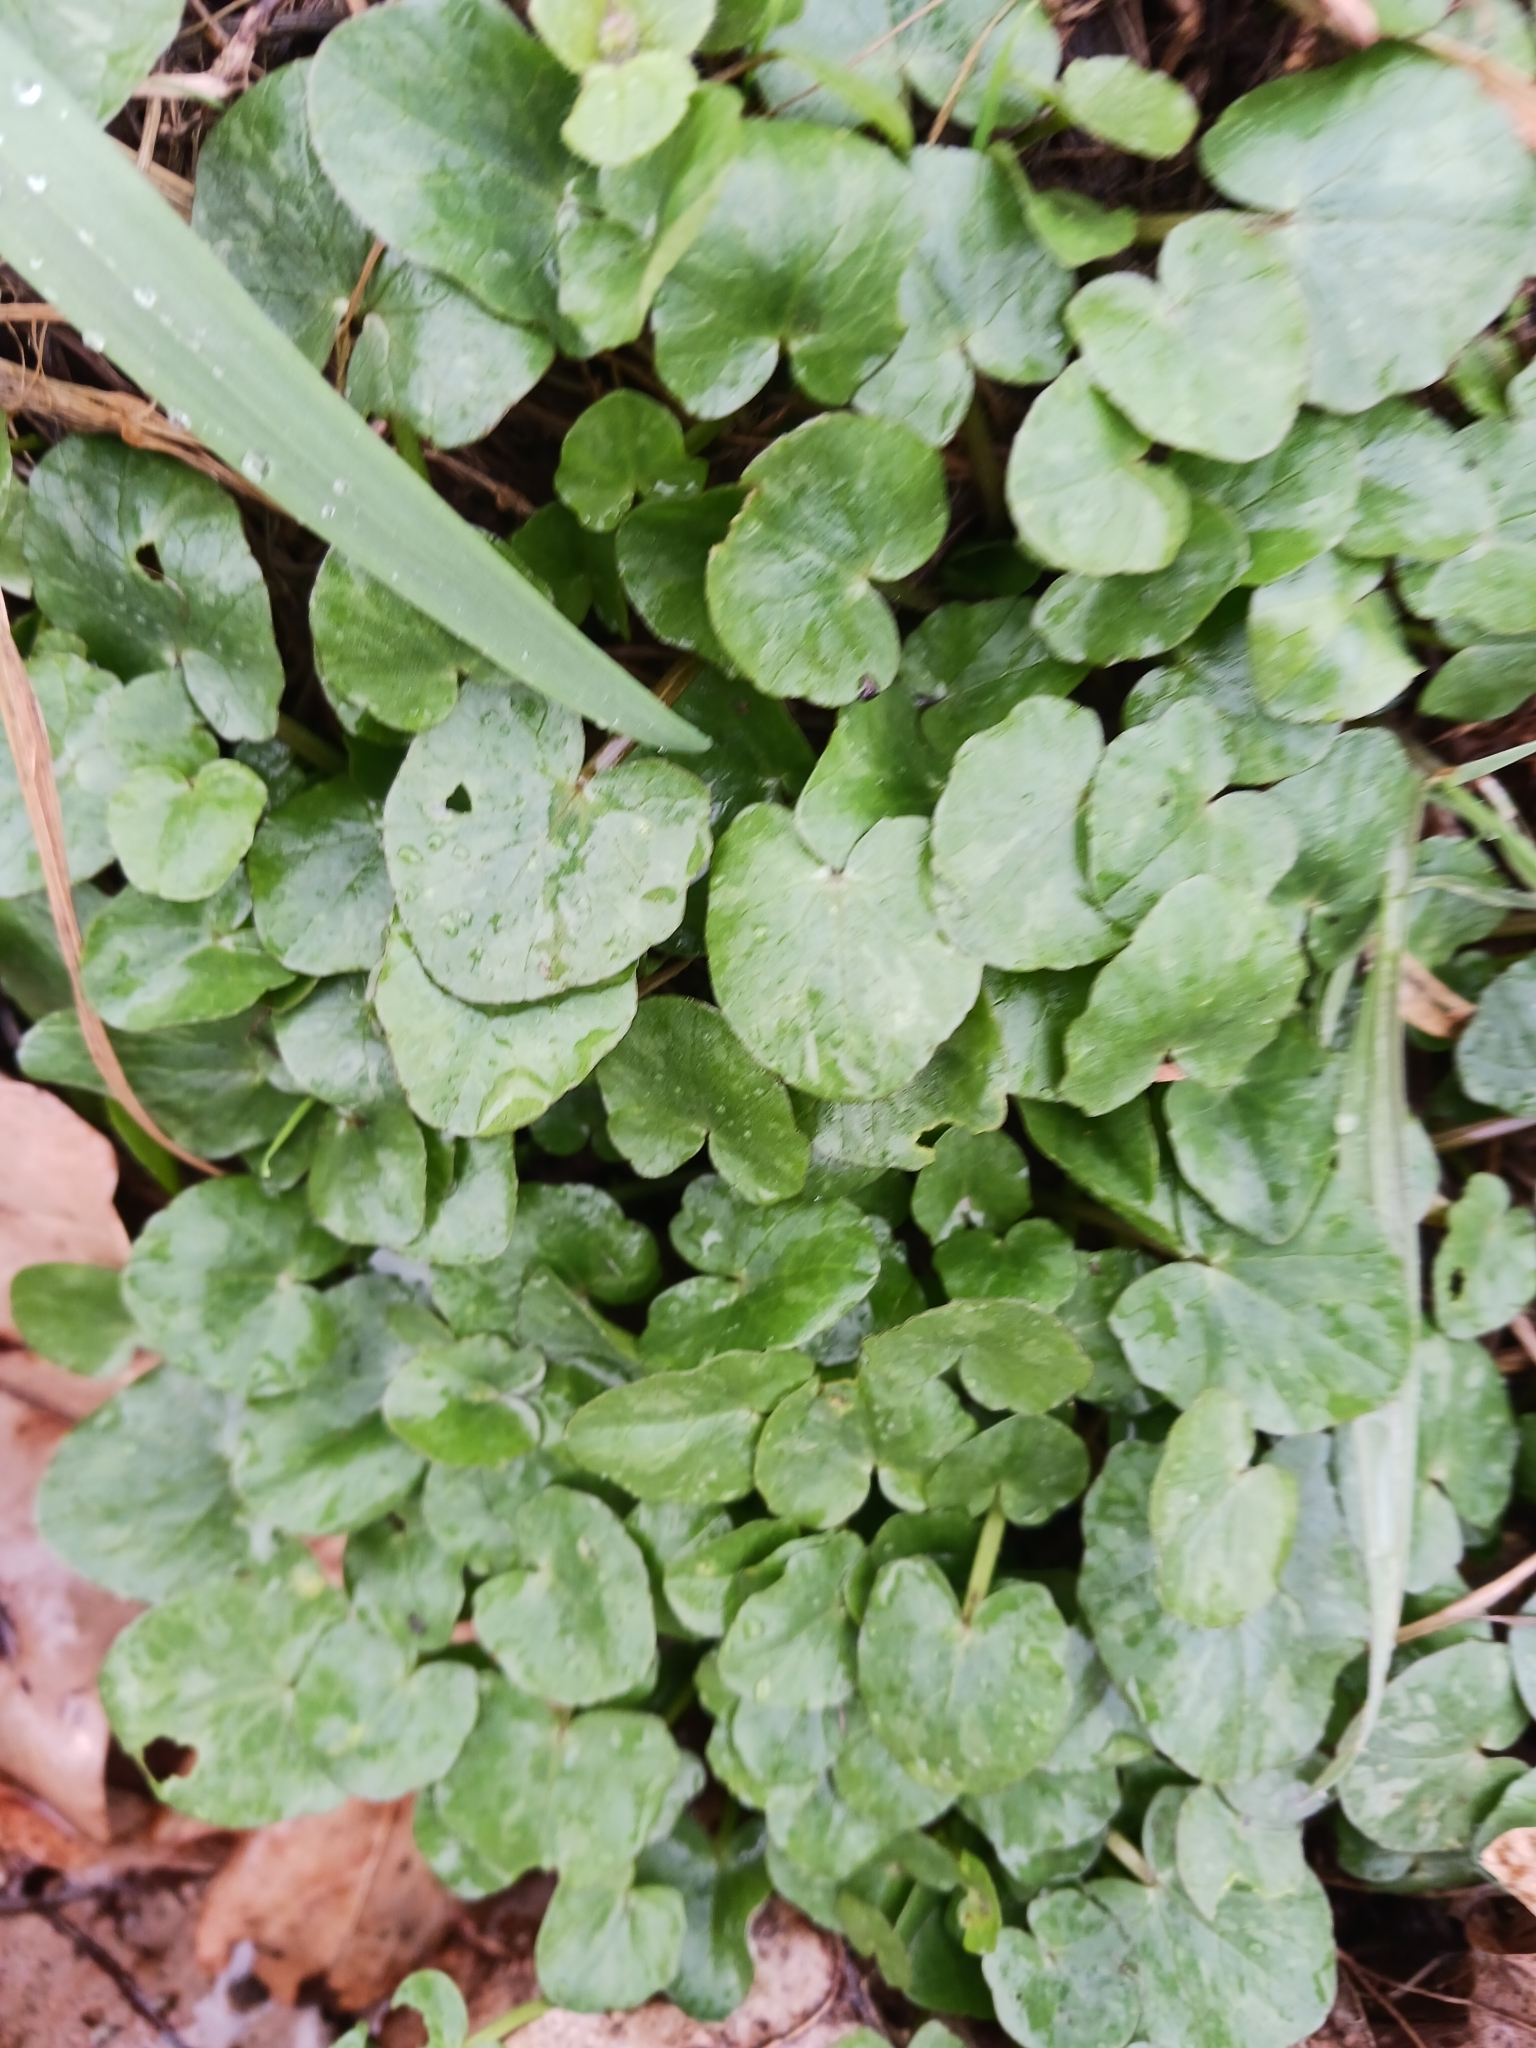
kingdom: Plantae
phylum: Tracheophyta
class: Magnoliopsida
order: Ranunculales
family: Ranunculaceae
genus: Ficaria
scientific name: Ficaria verna
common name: Lesser celandine
